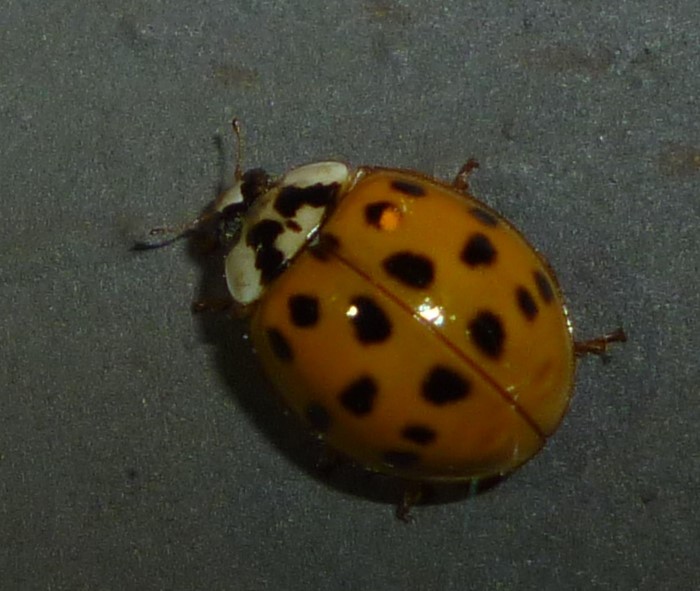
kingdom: Animalia
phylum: Arthropoda
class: Insecta
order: Coleoptera
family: Coccinellidae
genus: Harmonia
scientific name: Harmonia axyridis
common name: Harlequin ladybird
